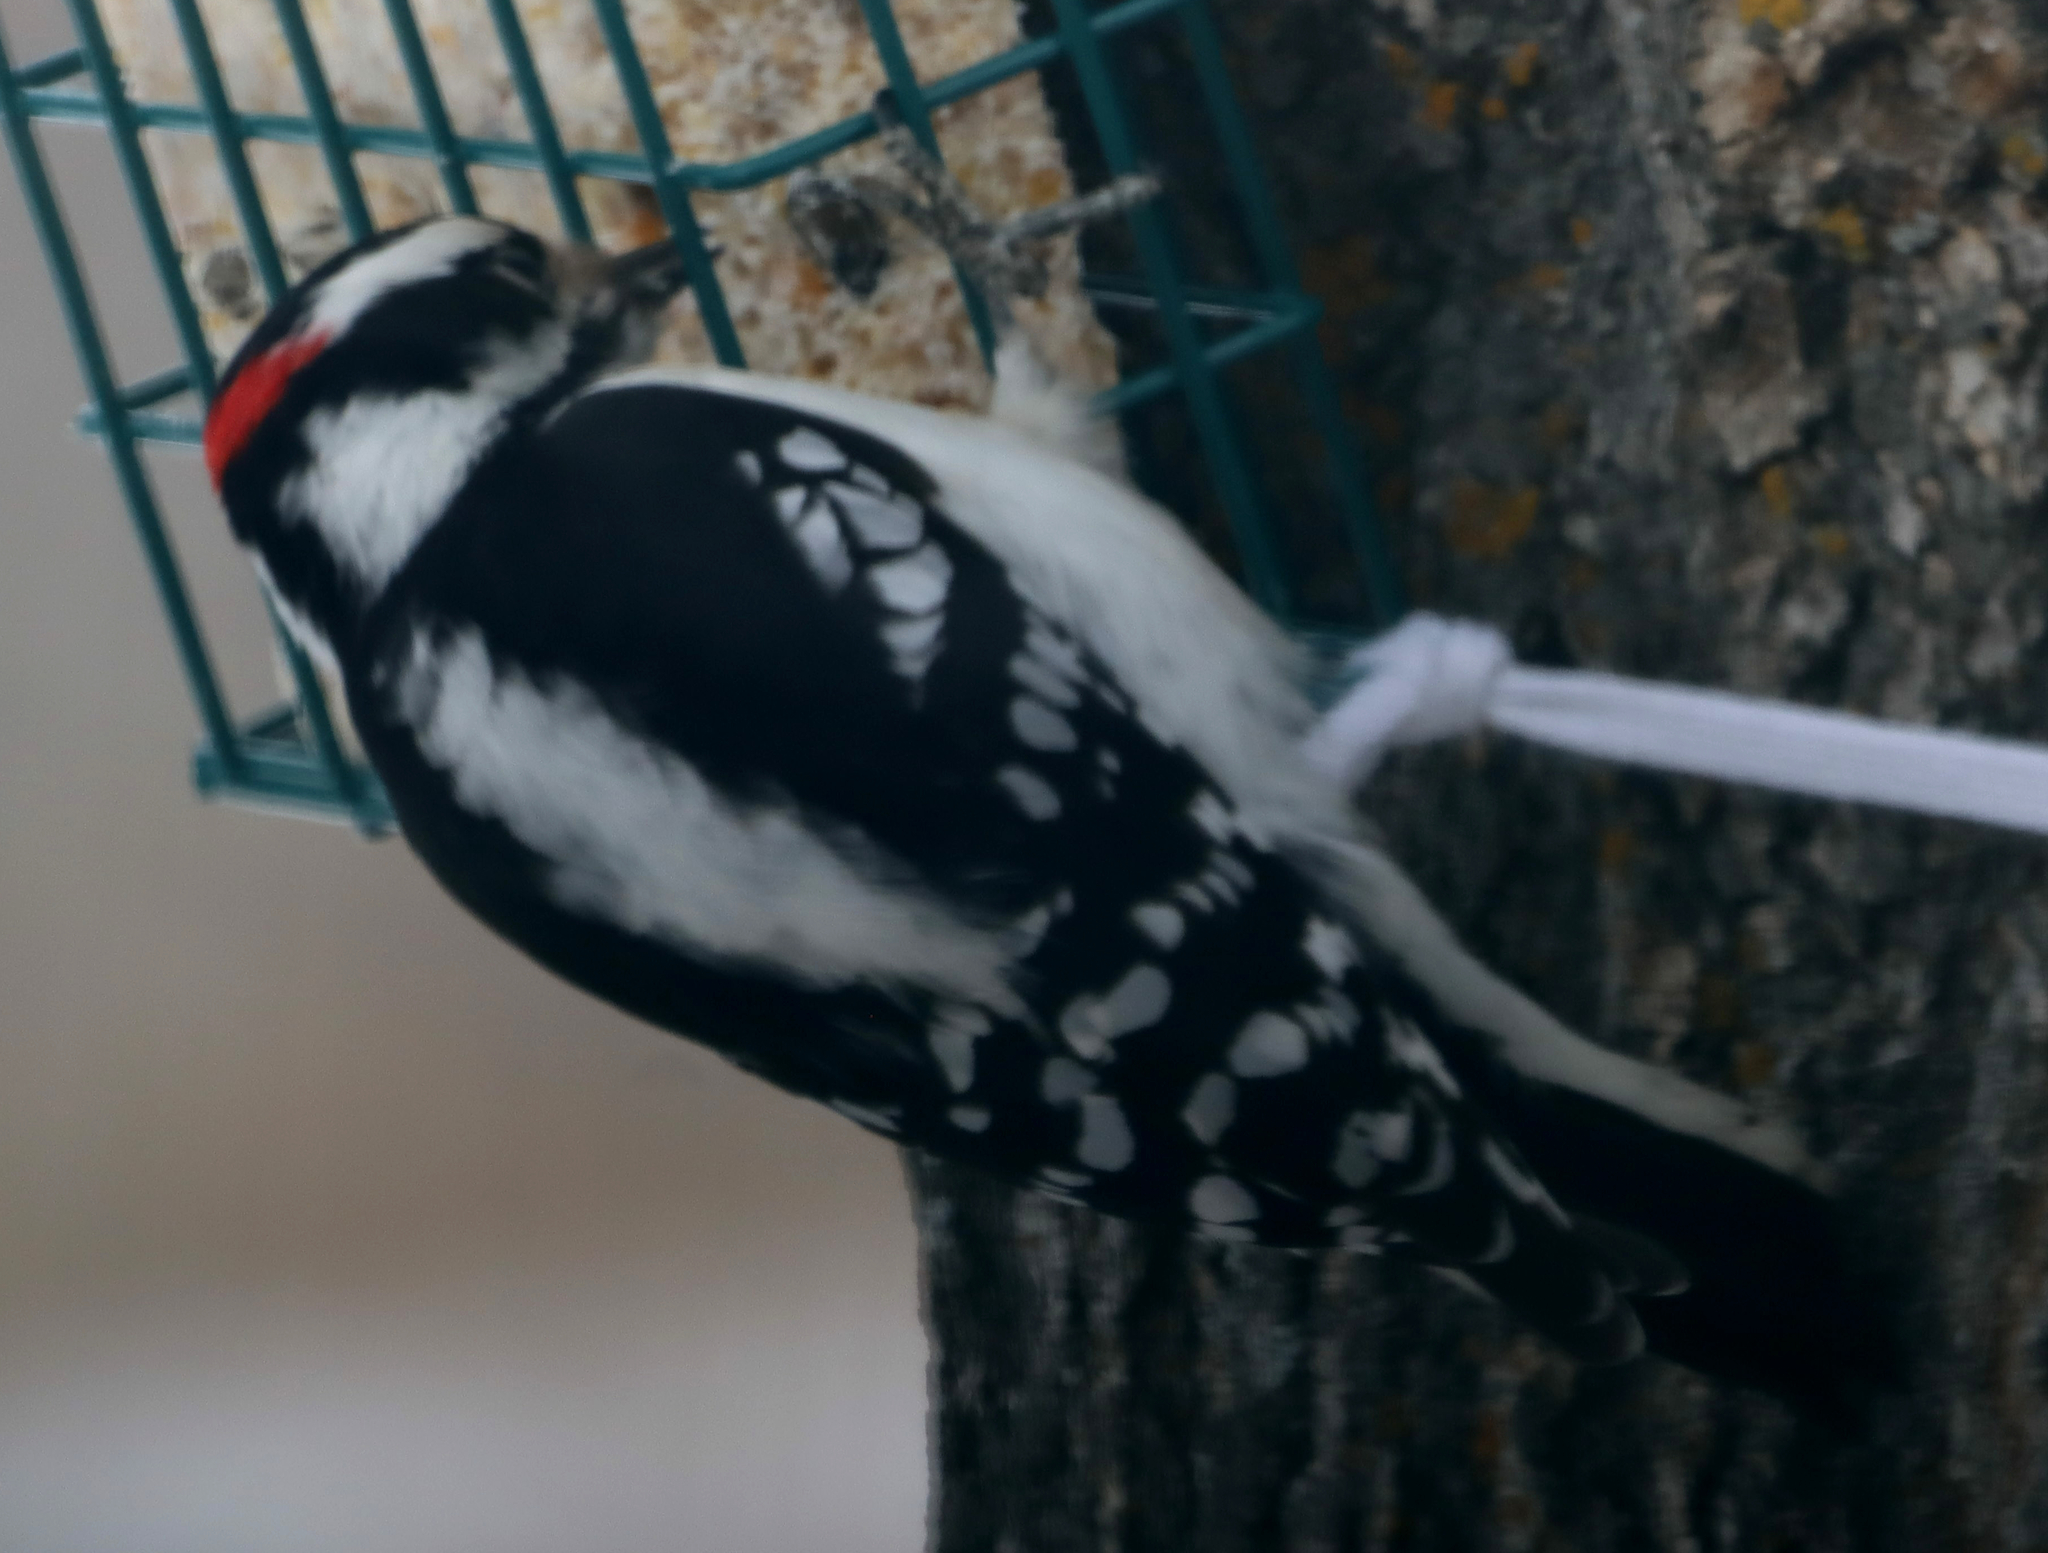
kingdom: Animalia
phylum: Chordata
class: Aves
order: Piciformes
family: Picidae
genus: Dryobates
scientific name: Dryobates pubescens
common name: Downy woodpecker
